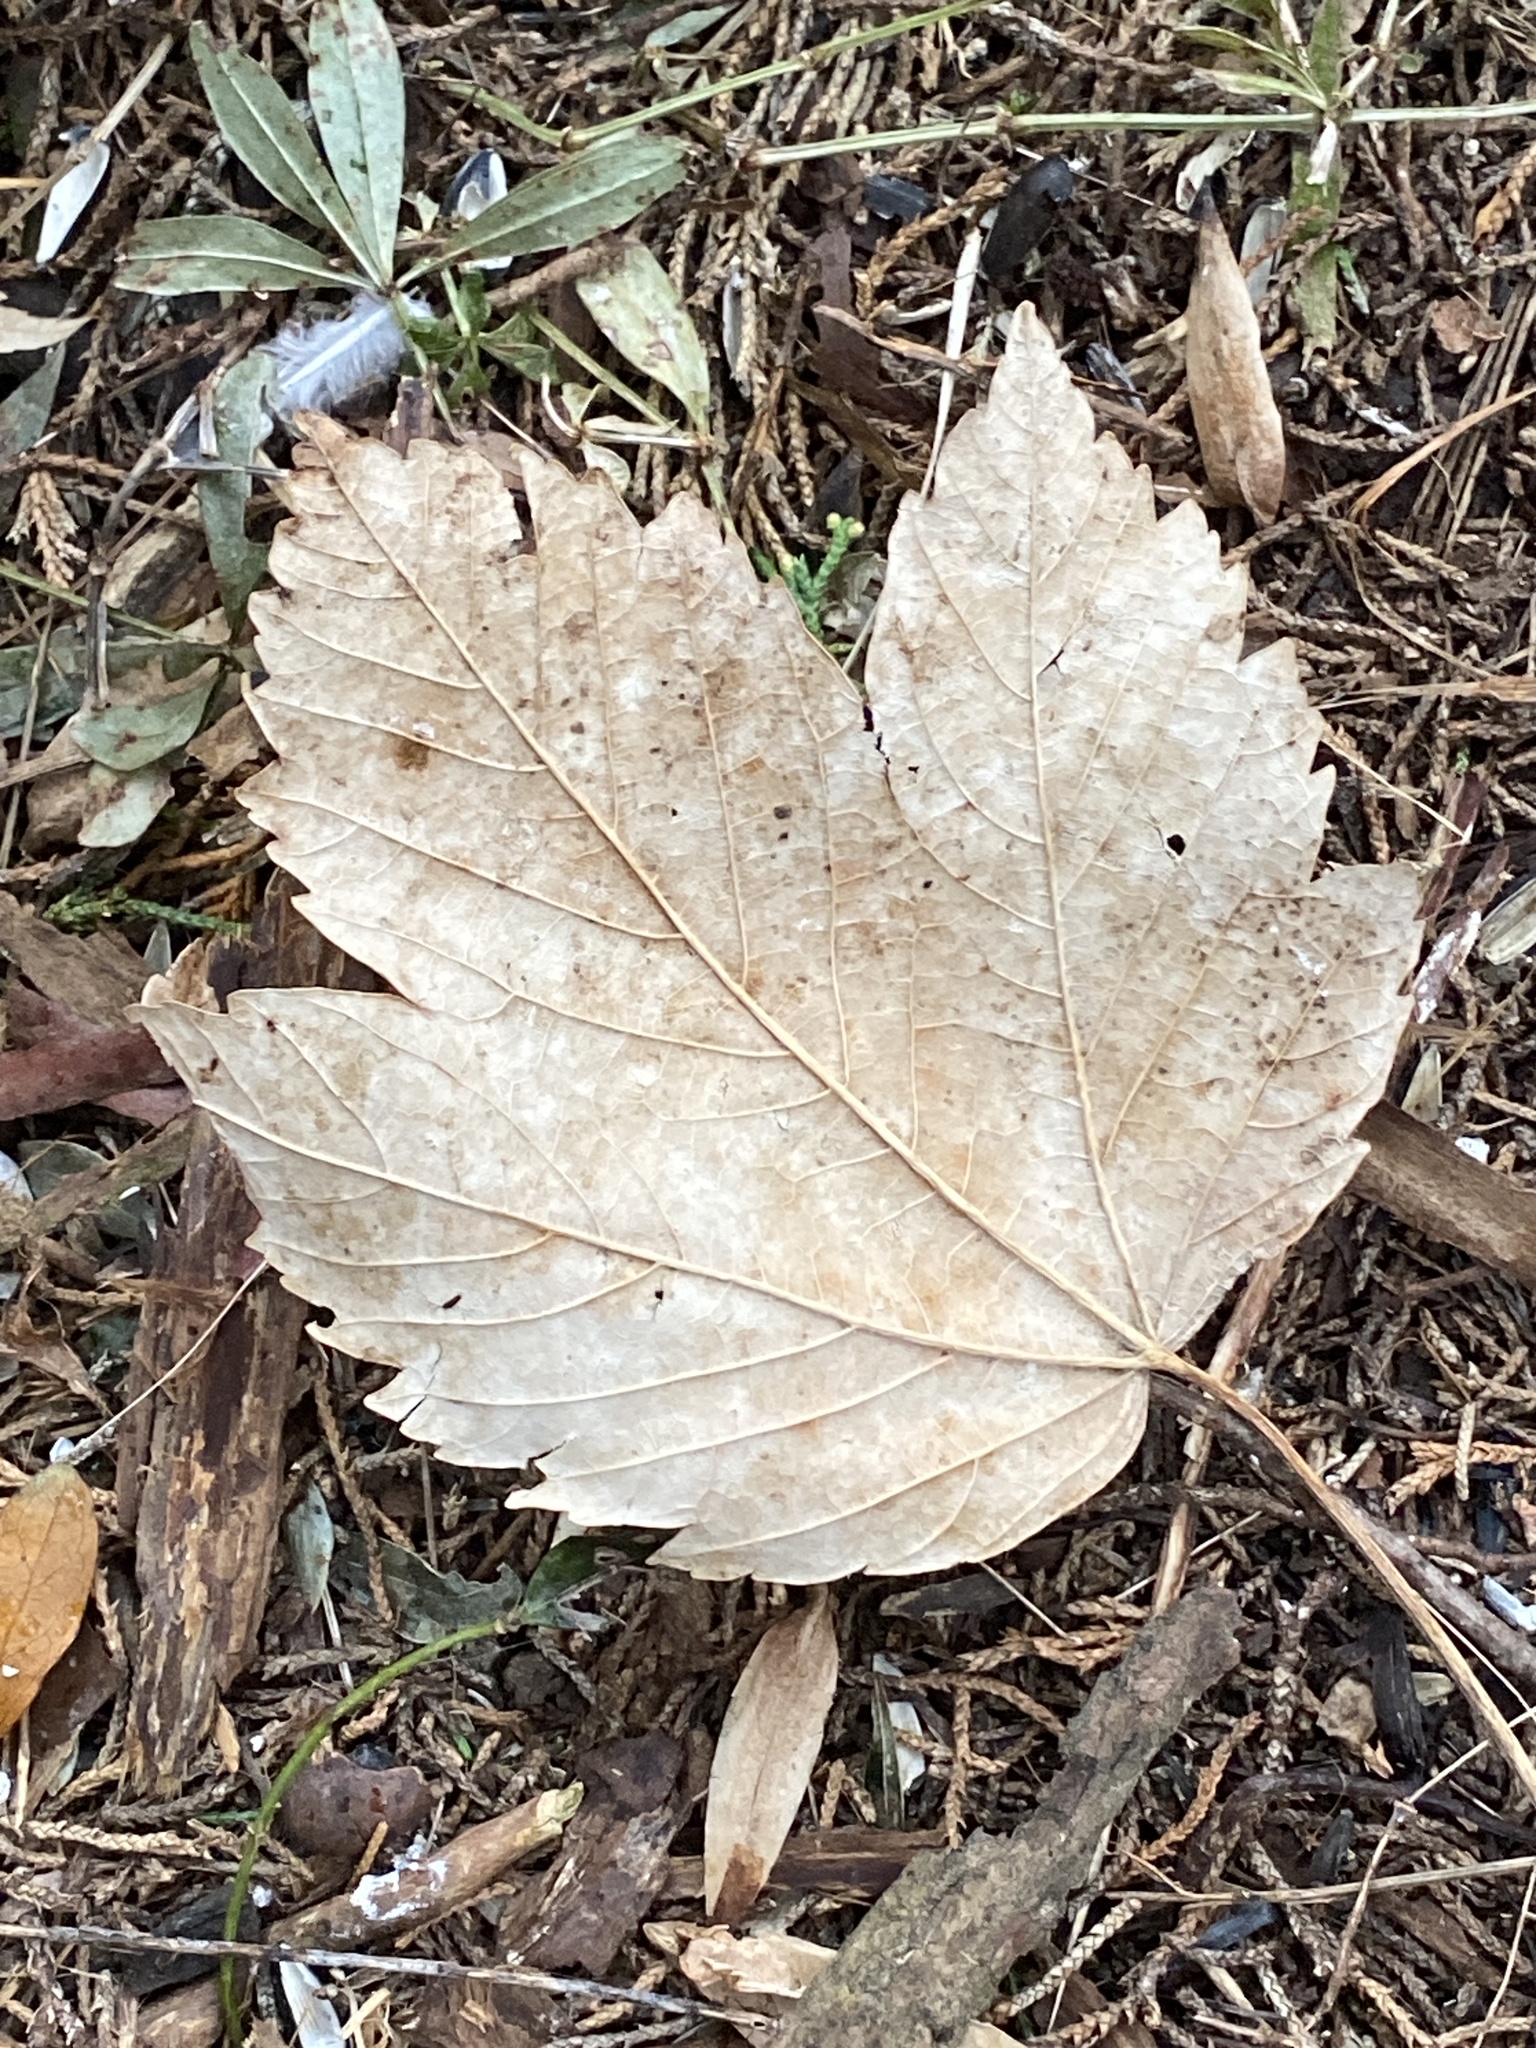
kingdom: Plantae
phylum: Tracheophyta
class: Magnoliopsida
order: Sapindales
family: Sapindaceae
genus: Acer
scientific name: Acer pseudoplatanus
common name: Sycamore
